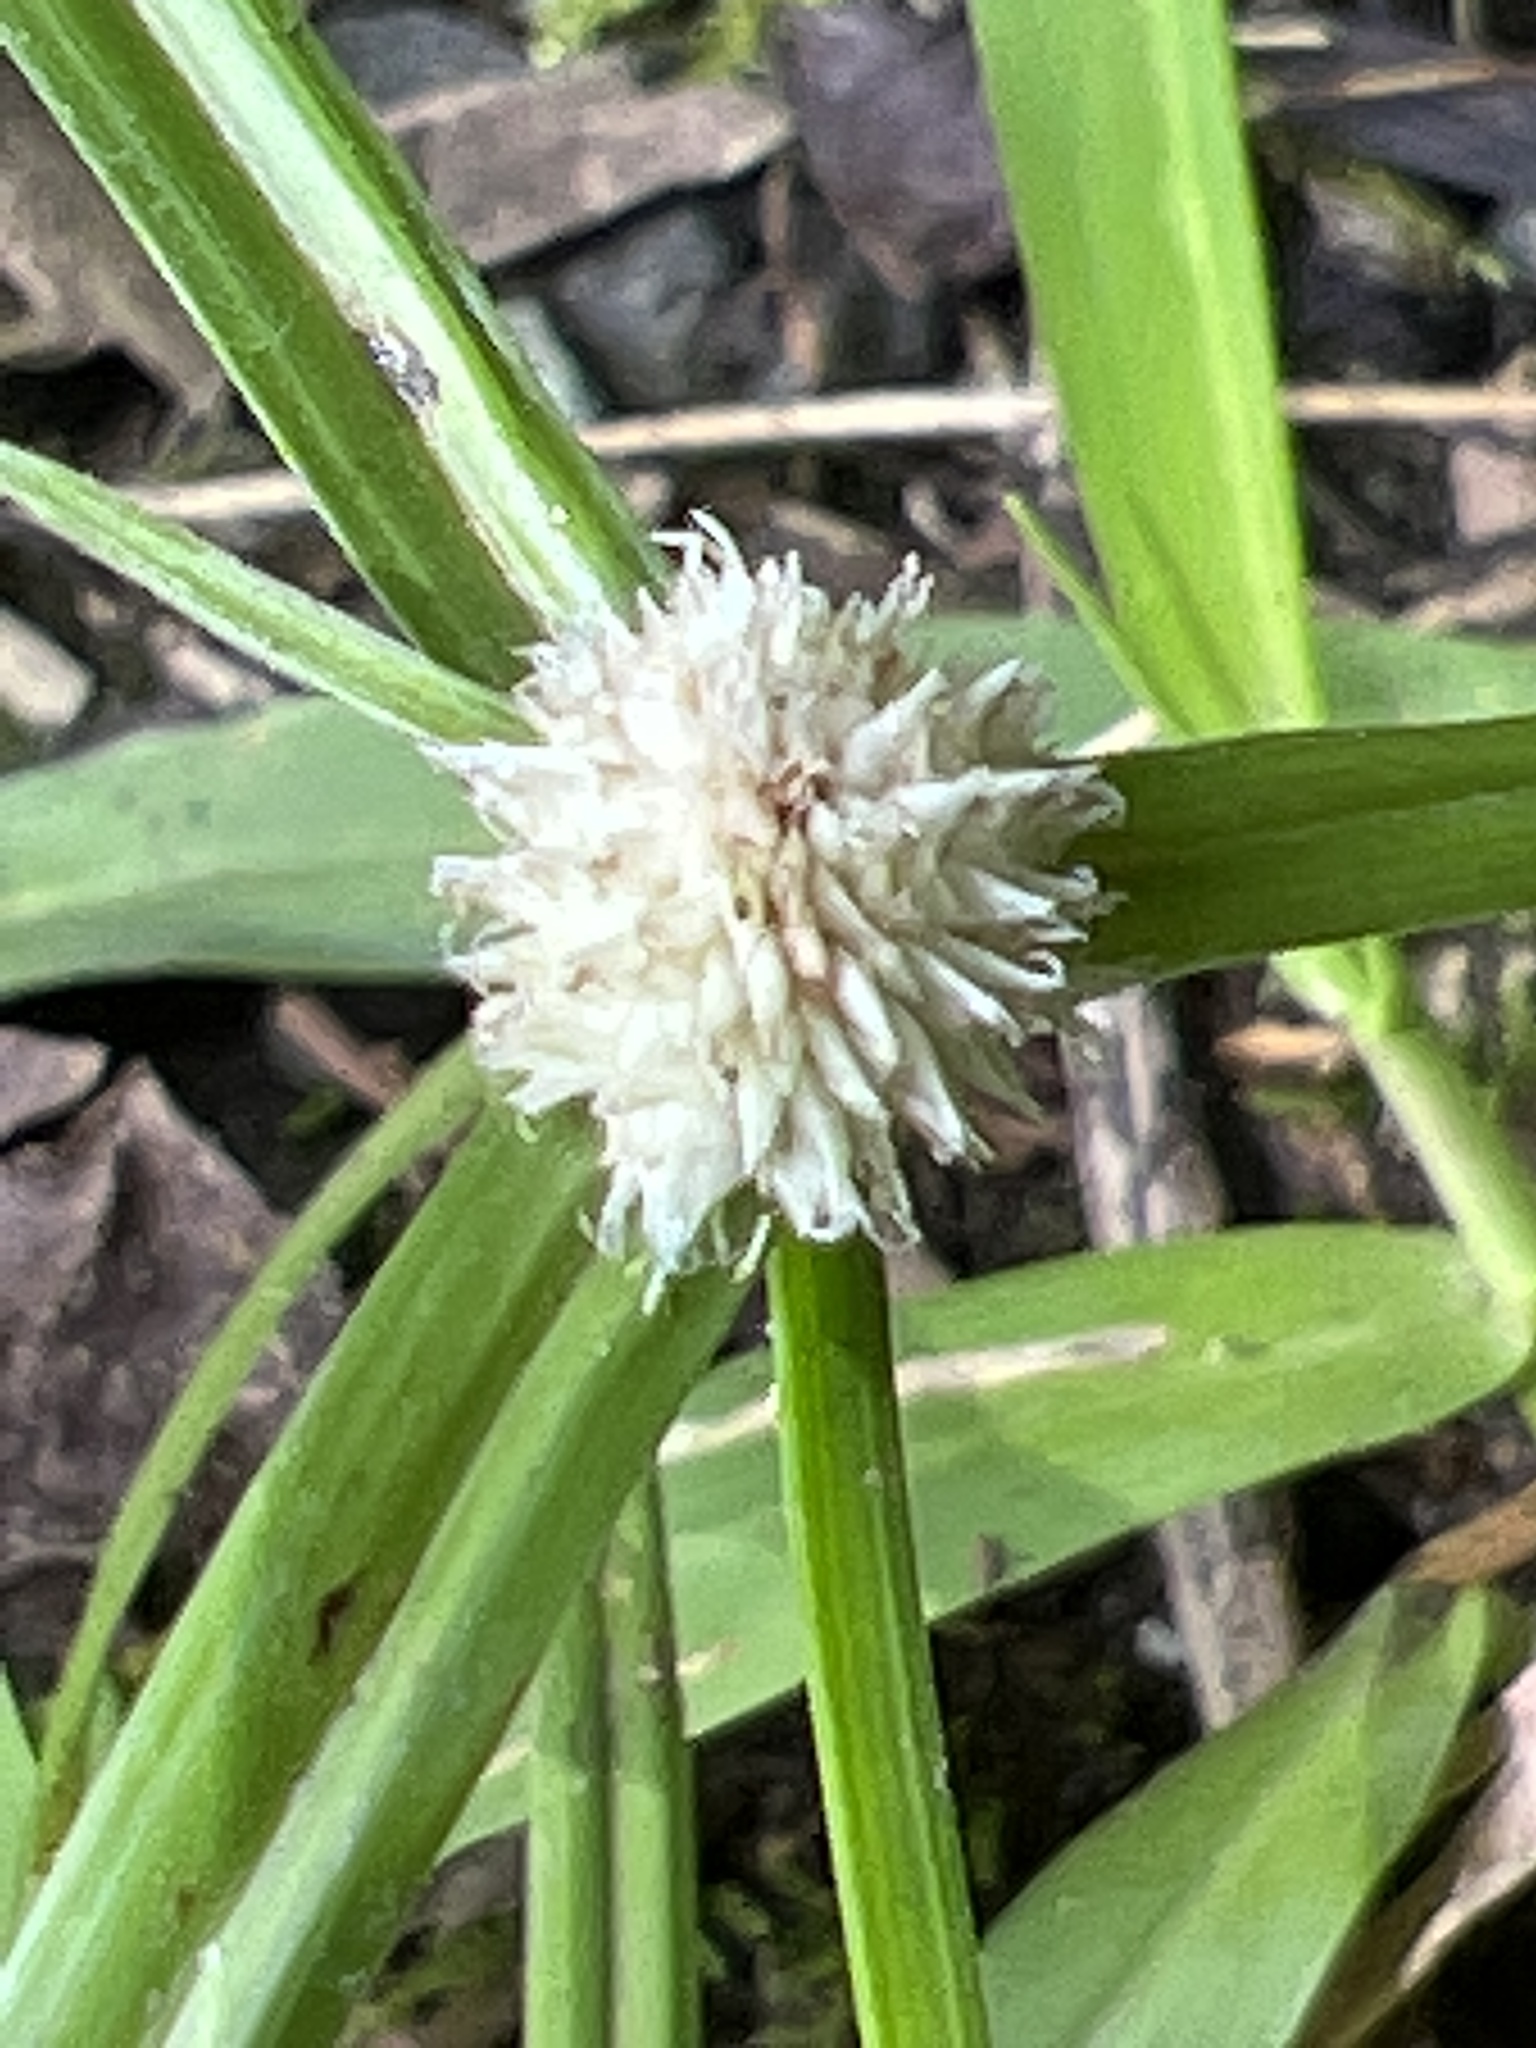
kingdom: Plantae
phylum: Tracheophyta
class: Liliopsida
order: Poales
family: Cyperaceae
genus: Cyperus
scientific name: Cyperus mindorensis
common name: Flatsedge
